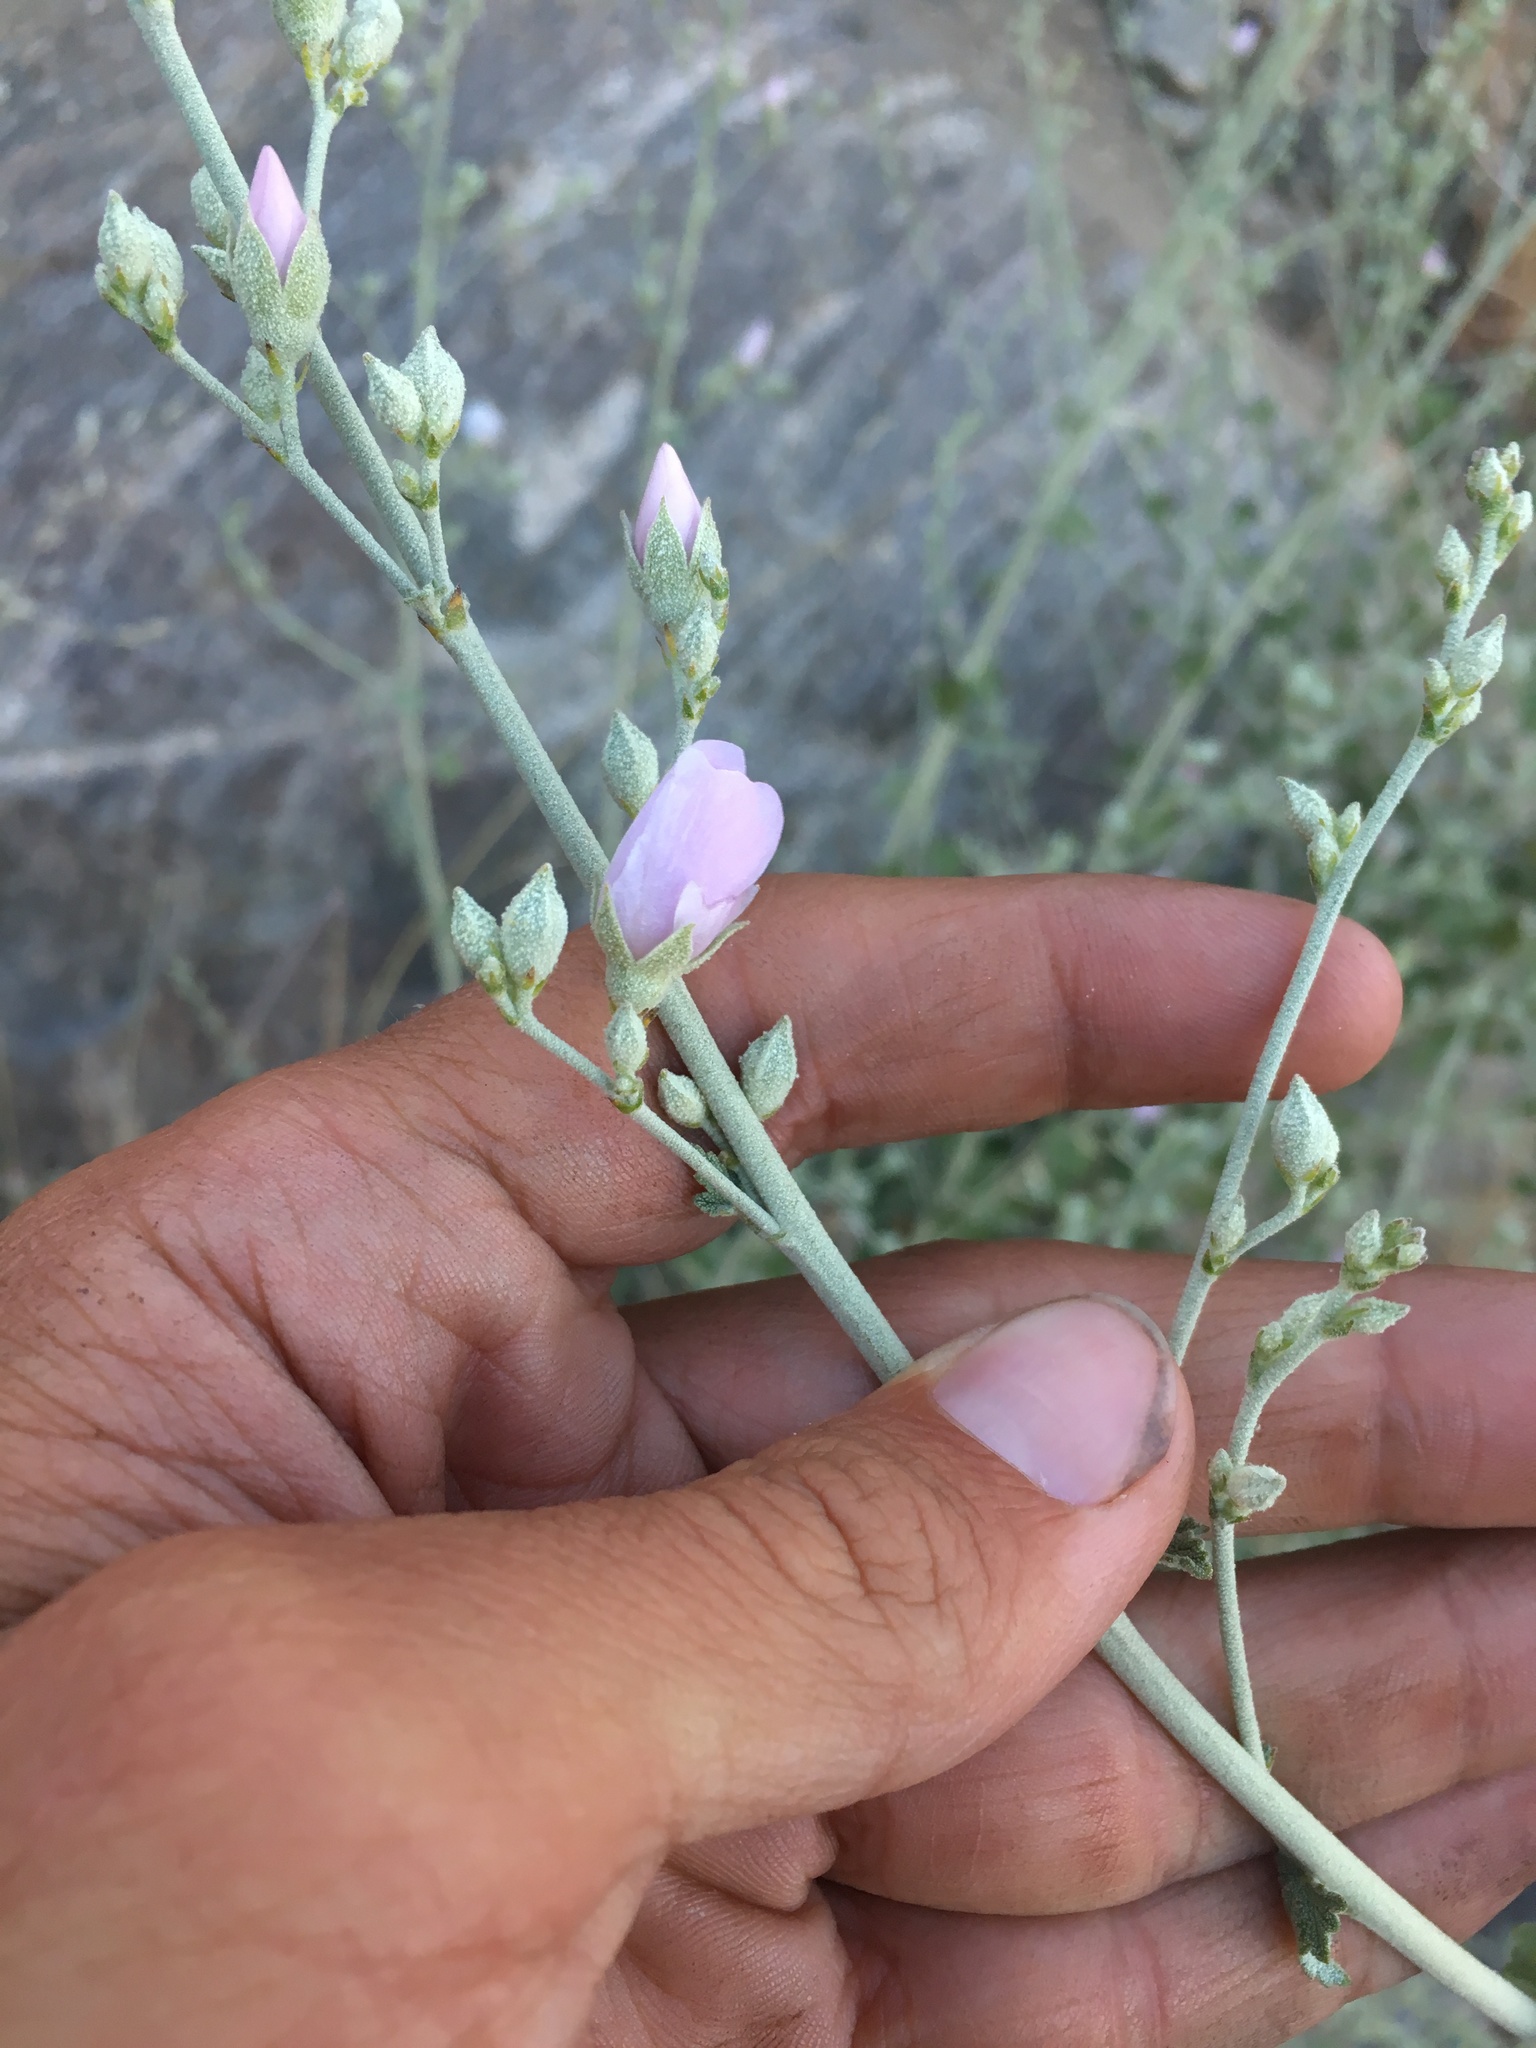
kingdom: Plantae
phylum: Tracheophyta
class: Magnoliopsida
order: Malvales
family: Malvaceae
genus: Malacothamnus
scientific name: Malacothamnus fasciculatus
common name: Sant cruz island bush-mallow
